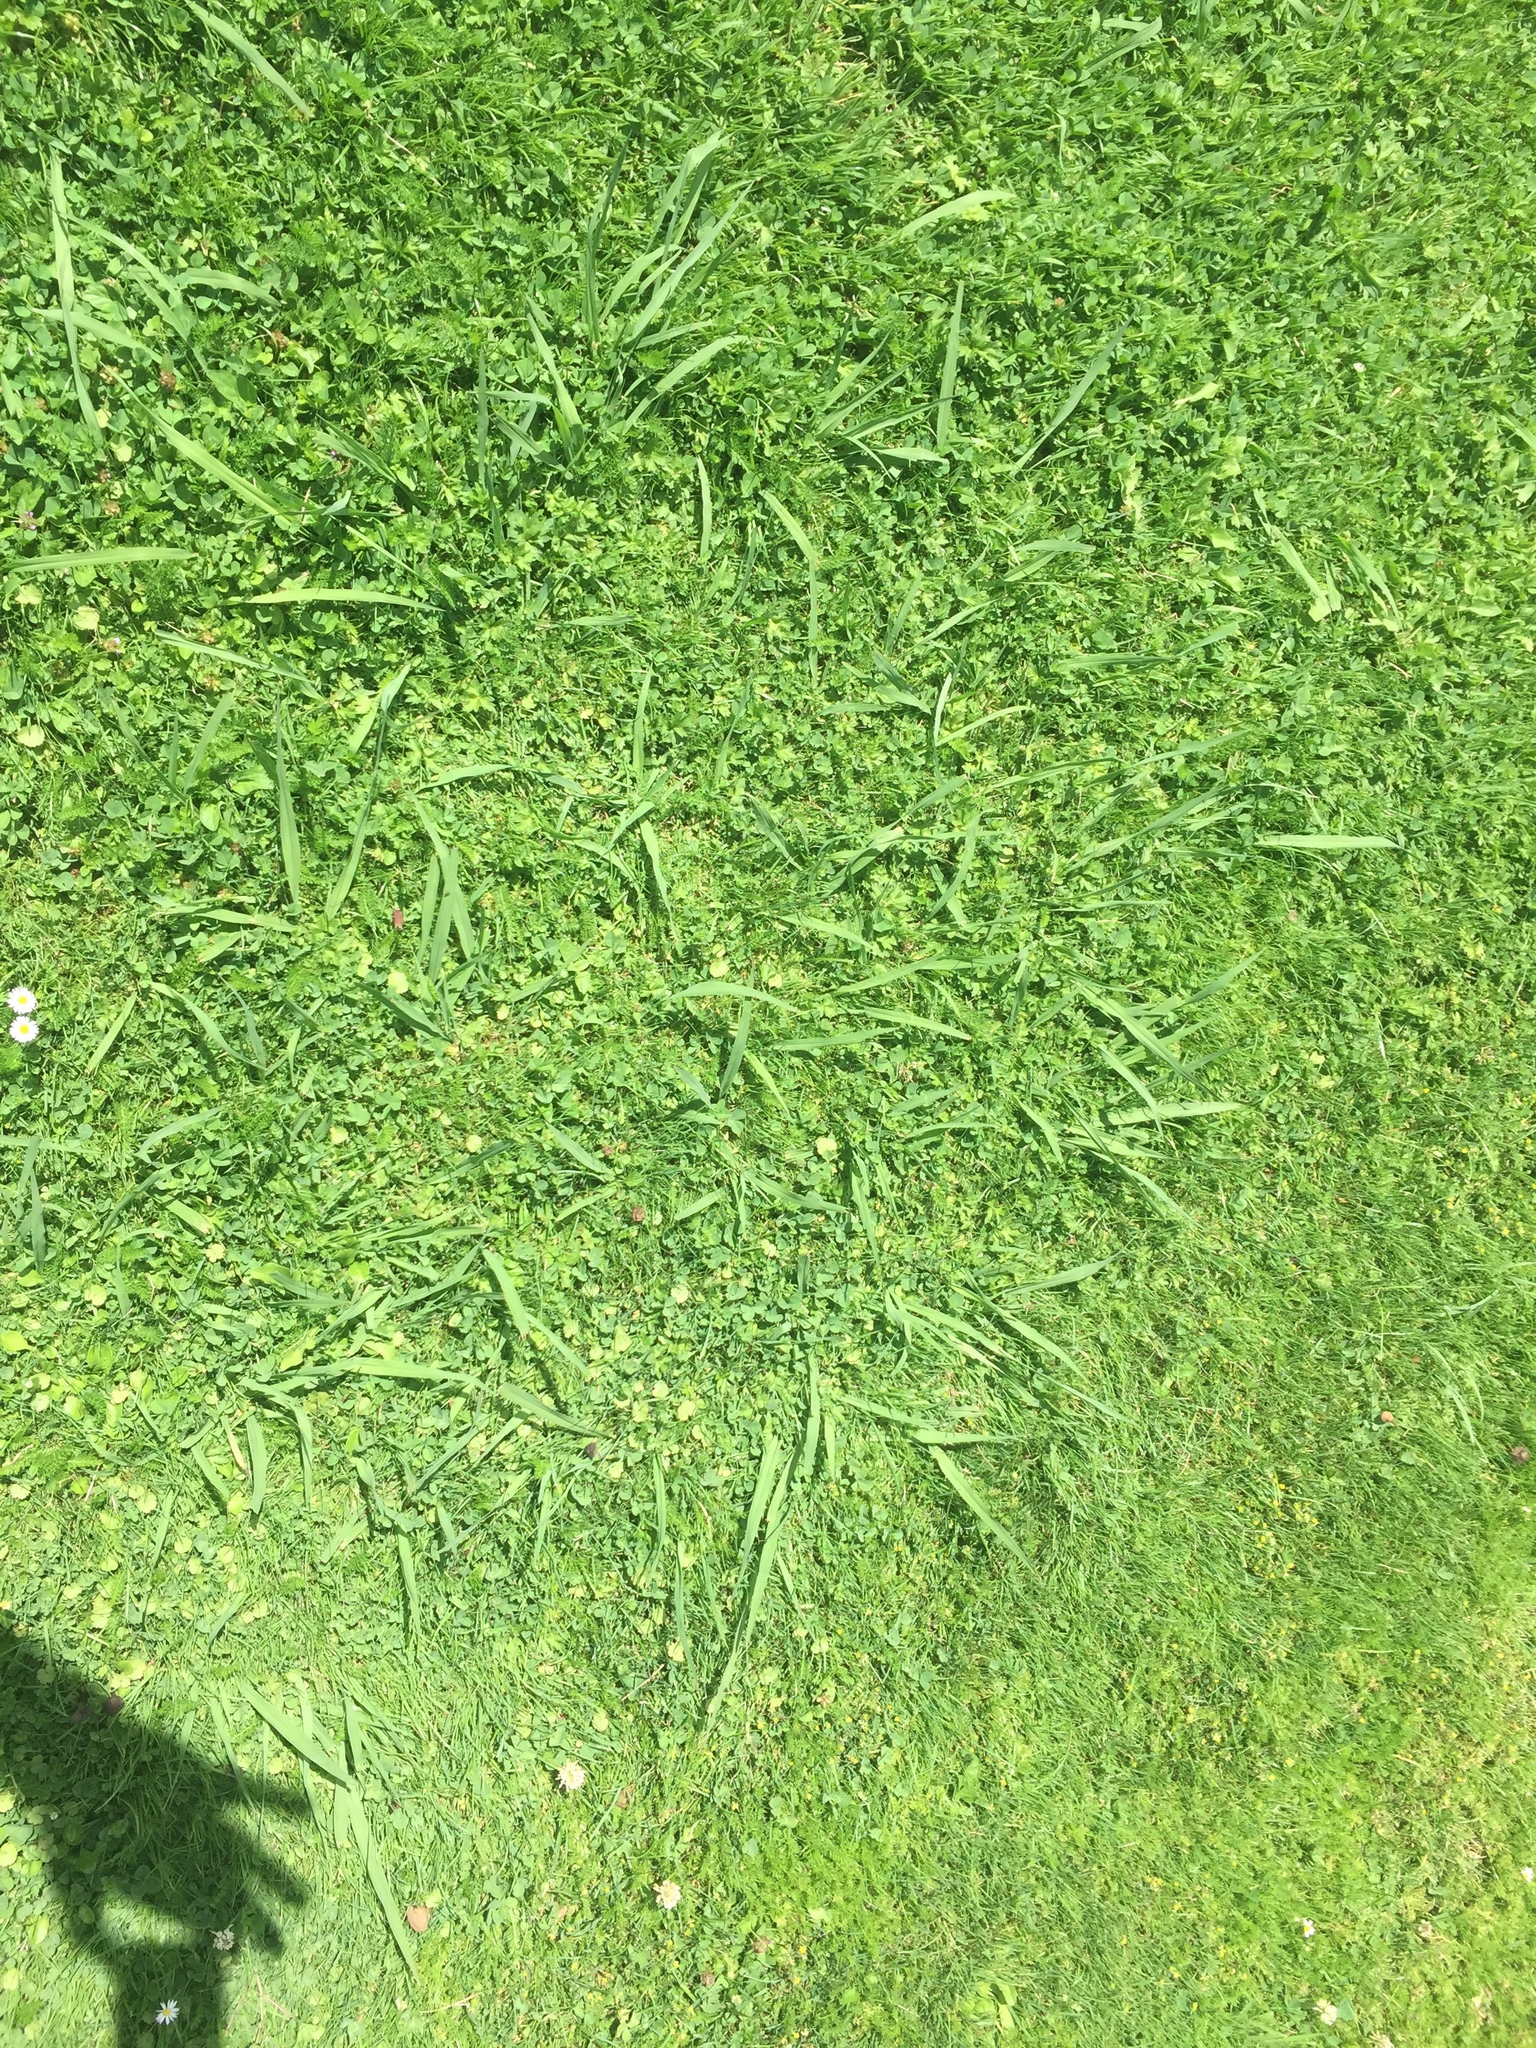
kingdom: Plantae
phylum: Tracheophyta
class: Liliopsida
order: Poales
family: Poaceae
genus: Paspalum
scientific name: Paspalum dilatatum
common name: Dallisgrass
